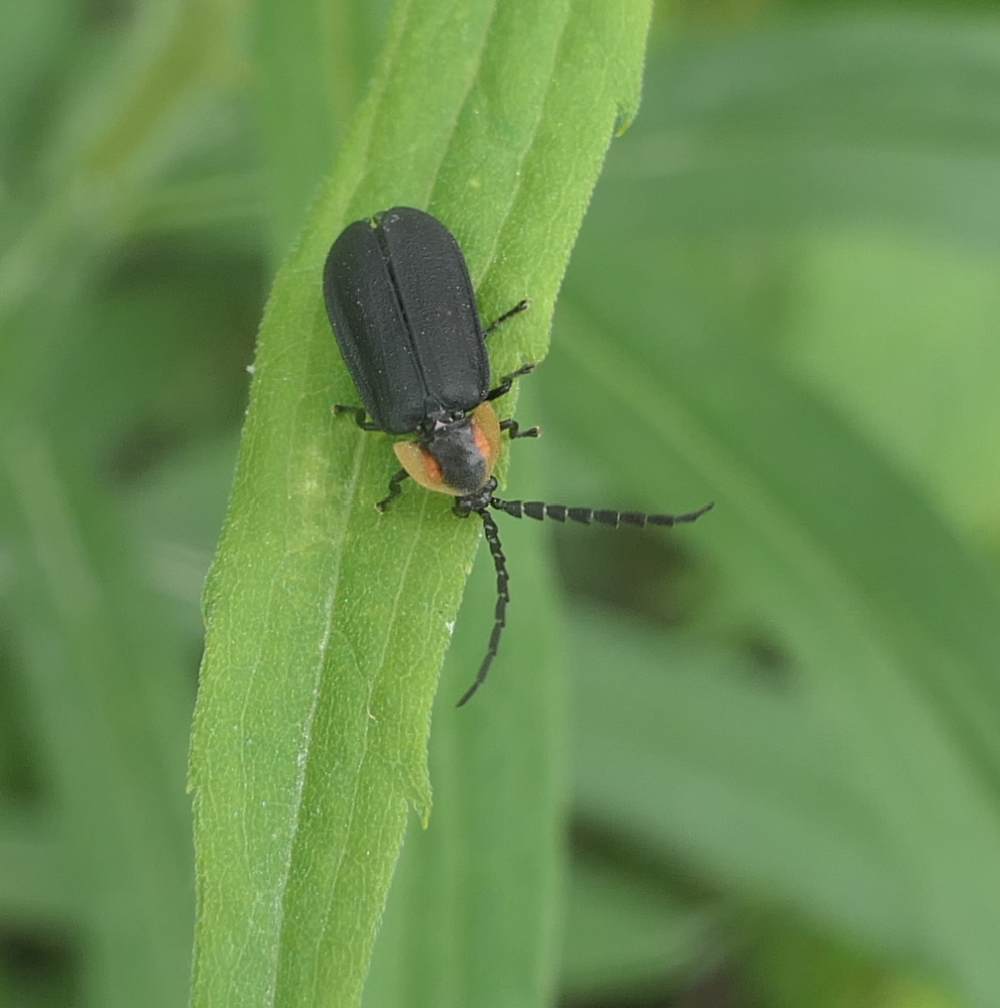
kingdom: Animalia
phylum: Arthropoda
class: Insecta
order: Coleoptera
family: Lampyridae
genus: Lucidota
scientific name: Lucidota atra
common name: Black firefly
